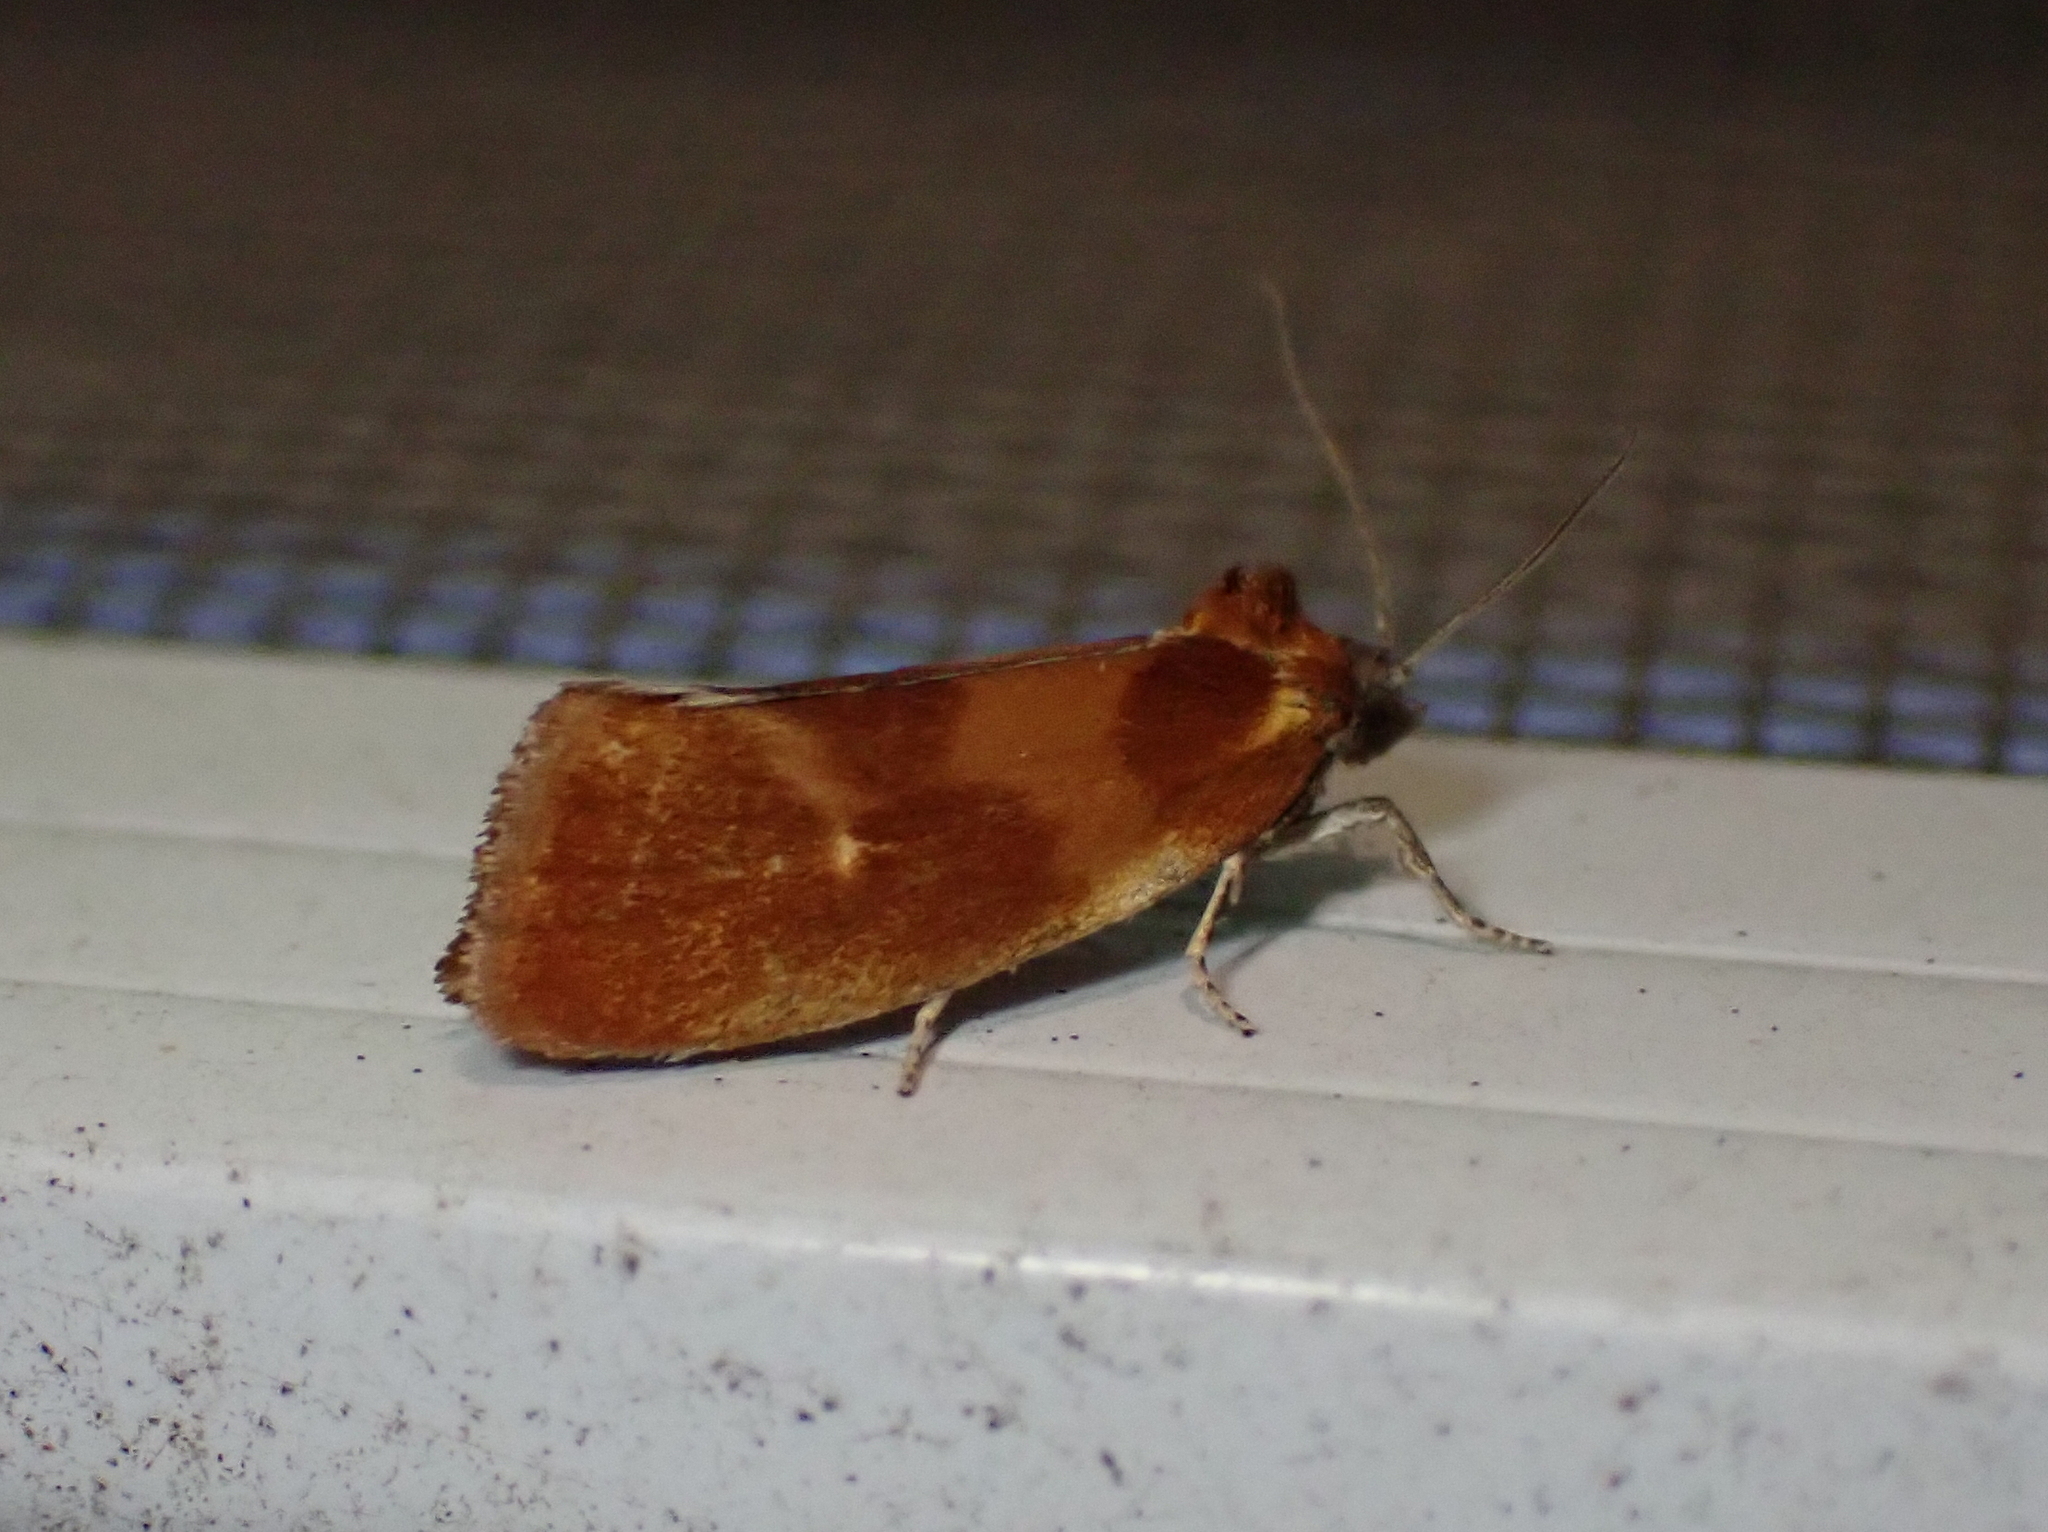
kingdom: Animalia
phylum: Arthropoda
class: Insecta
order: Lepidoptera
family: Tortricidae
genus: Eulia
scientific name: Eulia ministrana
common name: Brassy twist
